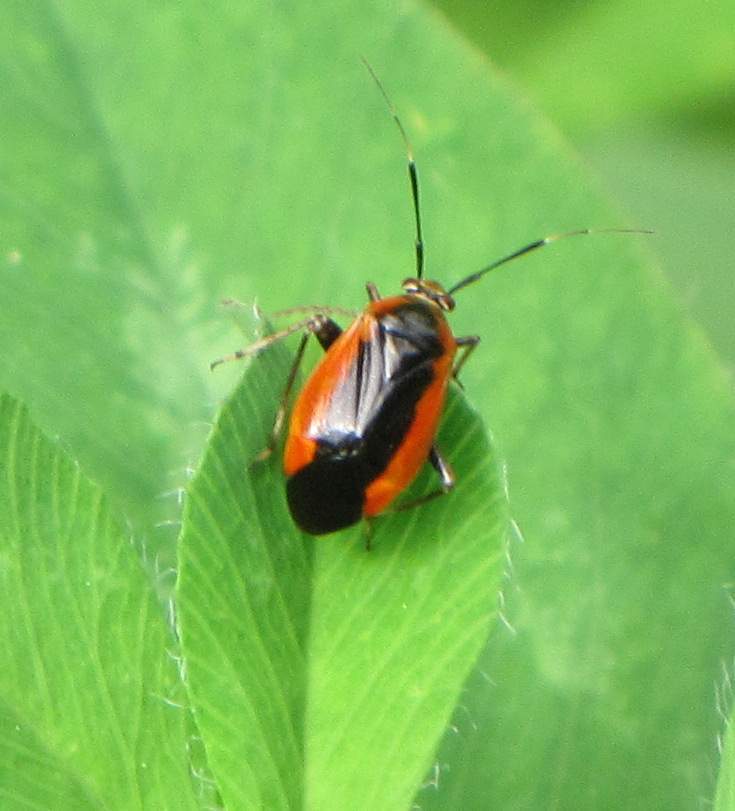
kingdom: Animalia
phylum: Arthropoda
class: Insecta
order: Hemiptera
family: Miridae
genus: Metriorrhynchomiris
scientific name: Metriorrhynchomiris dislocatus
